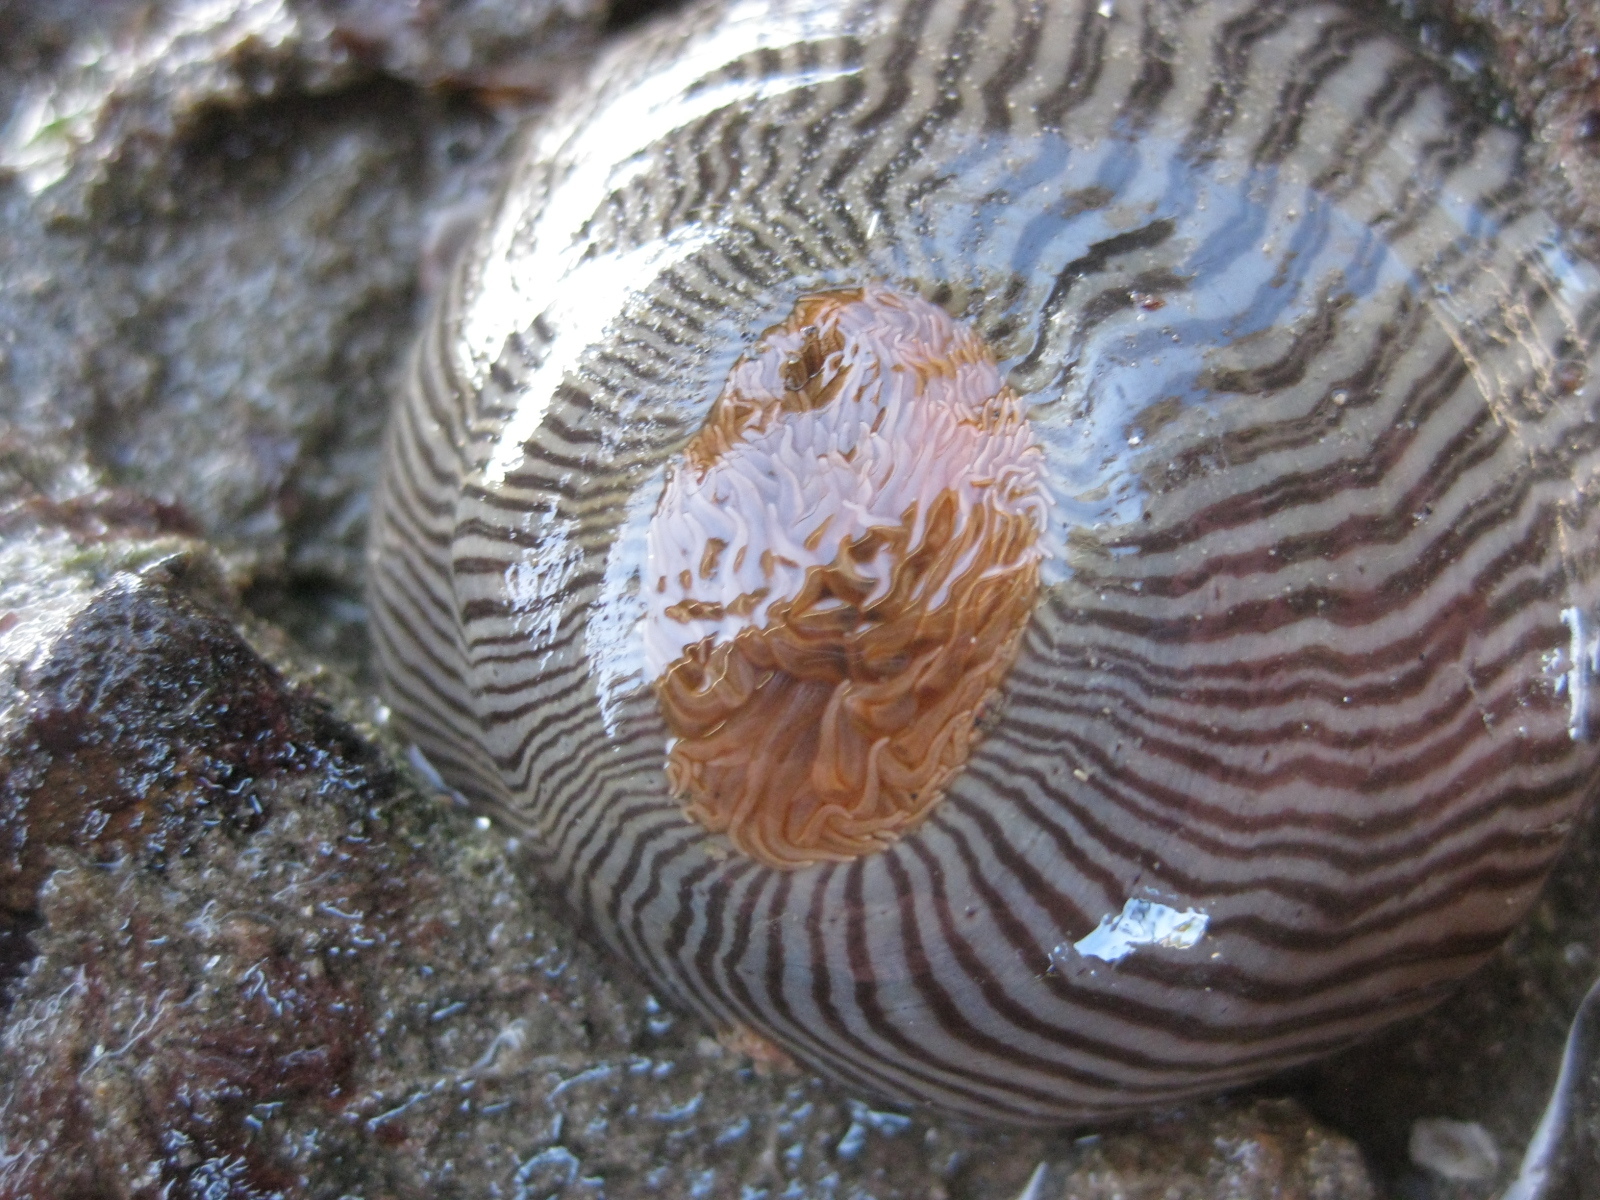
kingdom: Animalia
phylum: Cnidaria
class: Anthozoa
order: Actiniaria
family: Diadumenidae
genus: Diadumene
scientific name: Diadumene neozelanica
